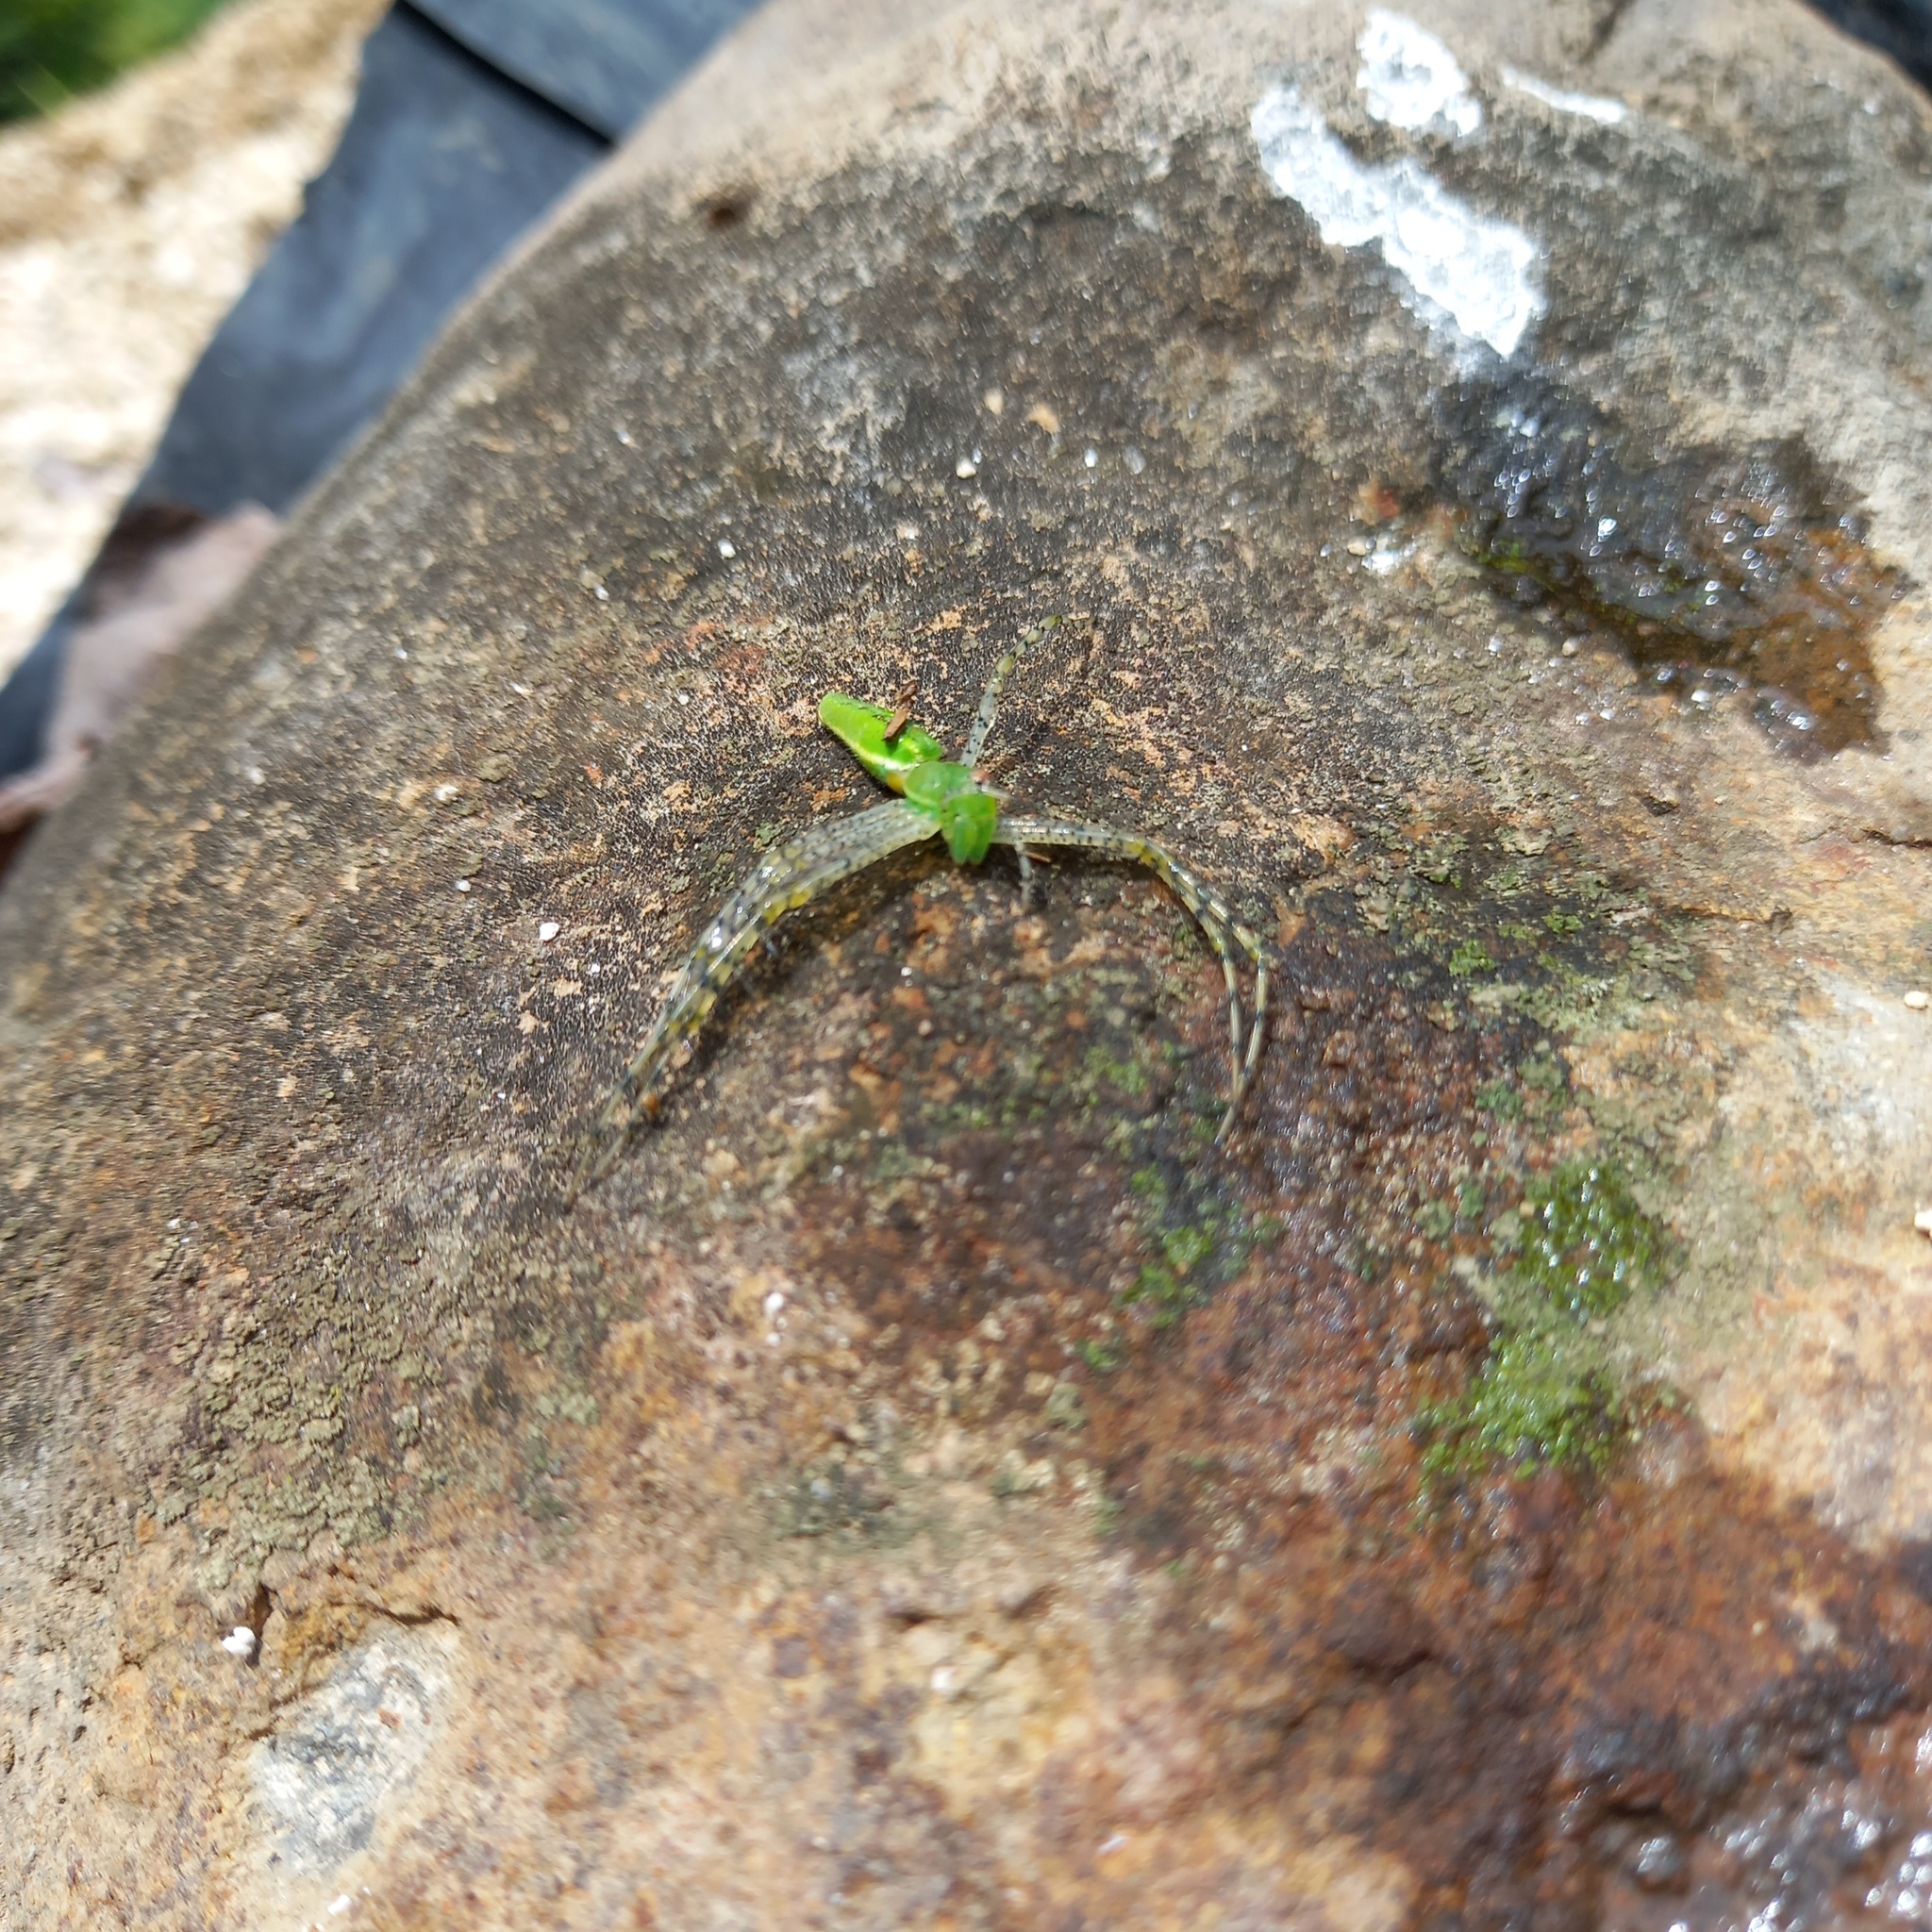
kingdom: Animalia
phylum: Arthropoda
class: Arachnida
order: Araneae
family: Oxyopidae
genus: Peucetia
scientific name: Peucetia viridans
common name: Lynx spiders
